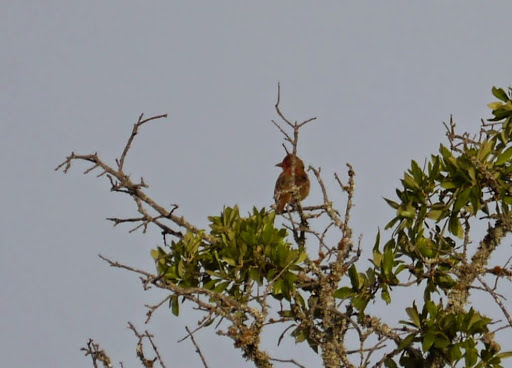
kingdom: Animalia
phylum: Chordata
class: Aves
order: Passeriformes
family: Cardinalidae
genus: Piranga
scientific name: Piranga rubra
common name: Summer tanager
